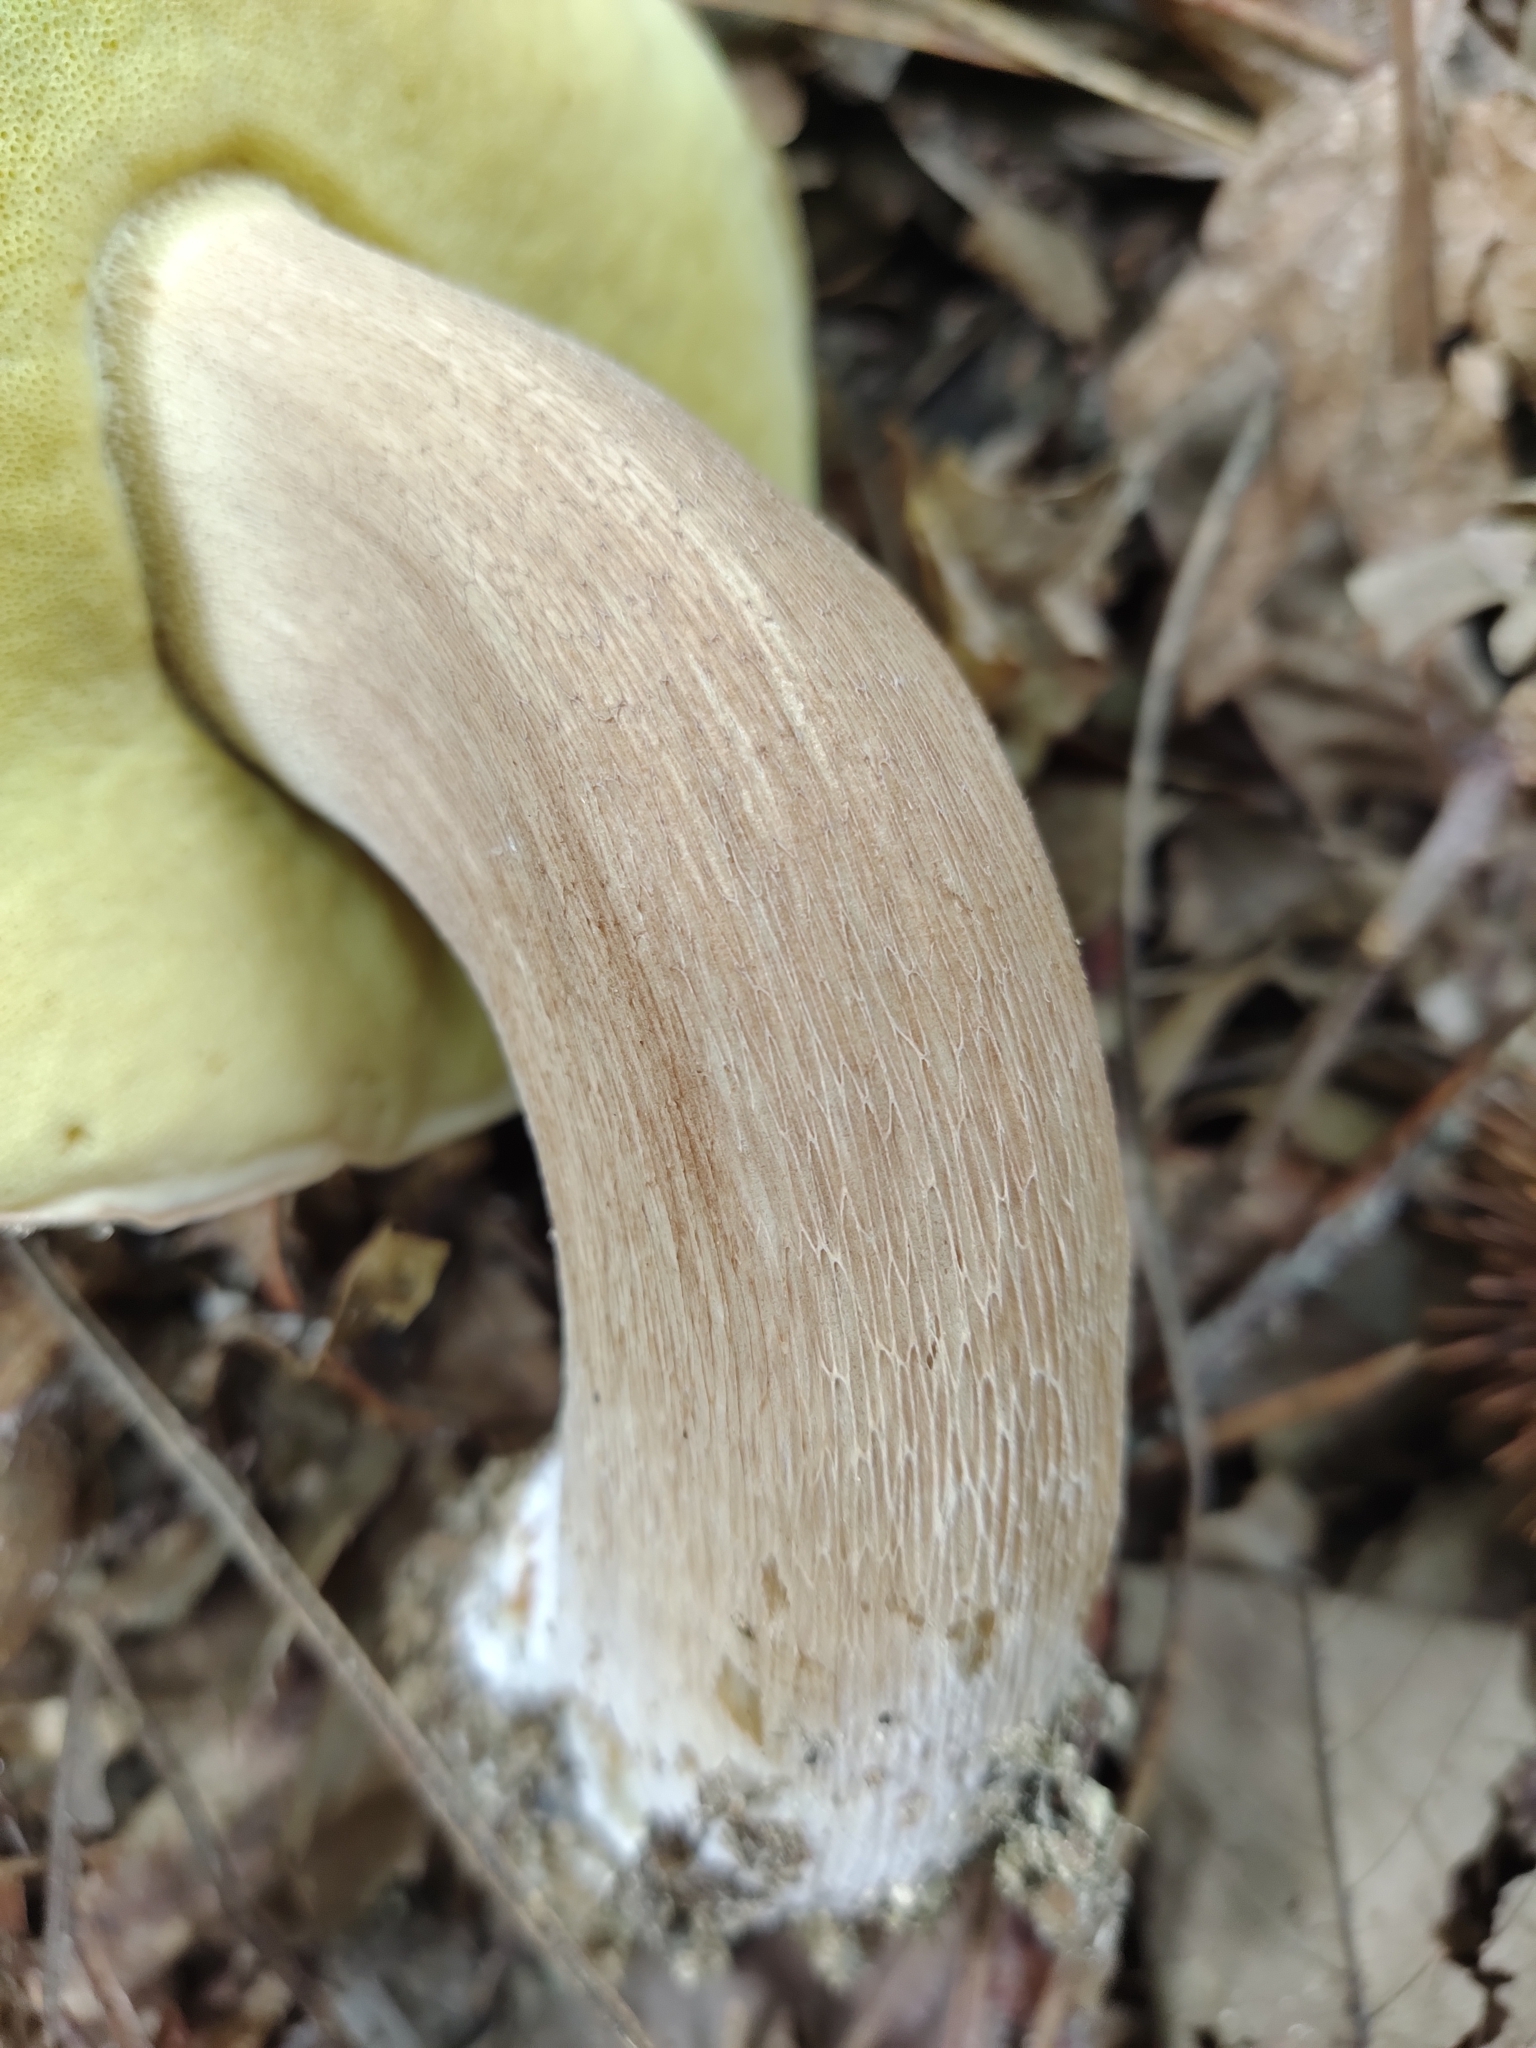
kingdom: Fungi
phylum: Basidiomycota
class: Agaricomycetes
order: Boletales
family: Boletaceae
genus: Boletus
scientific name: Boletus reticulatus
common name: Summer bolete
